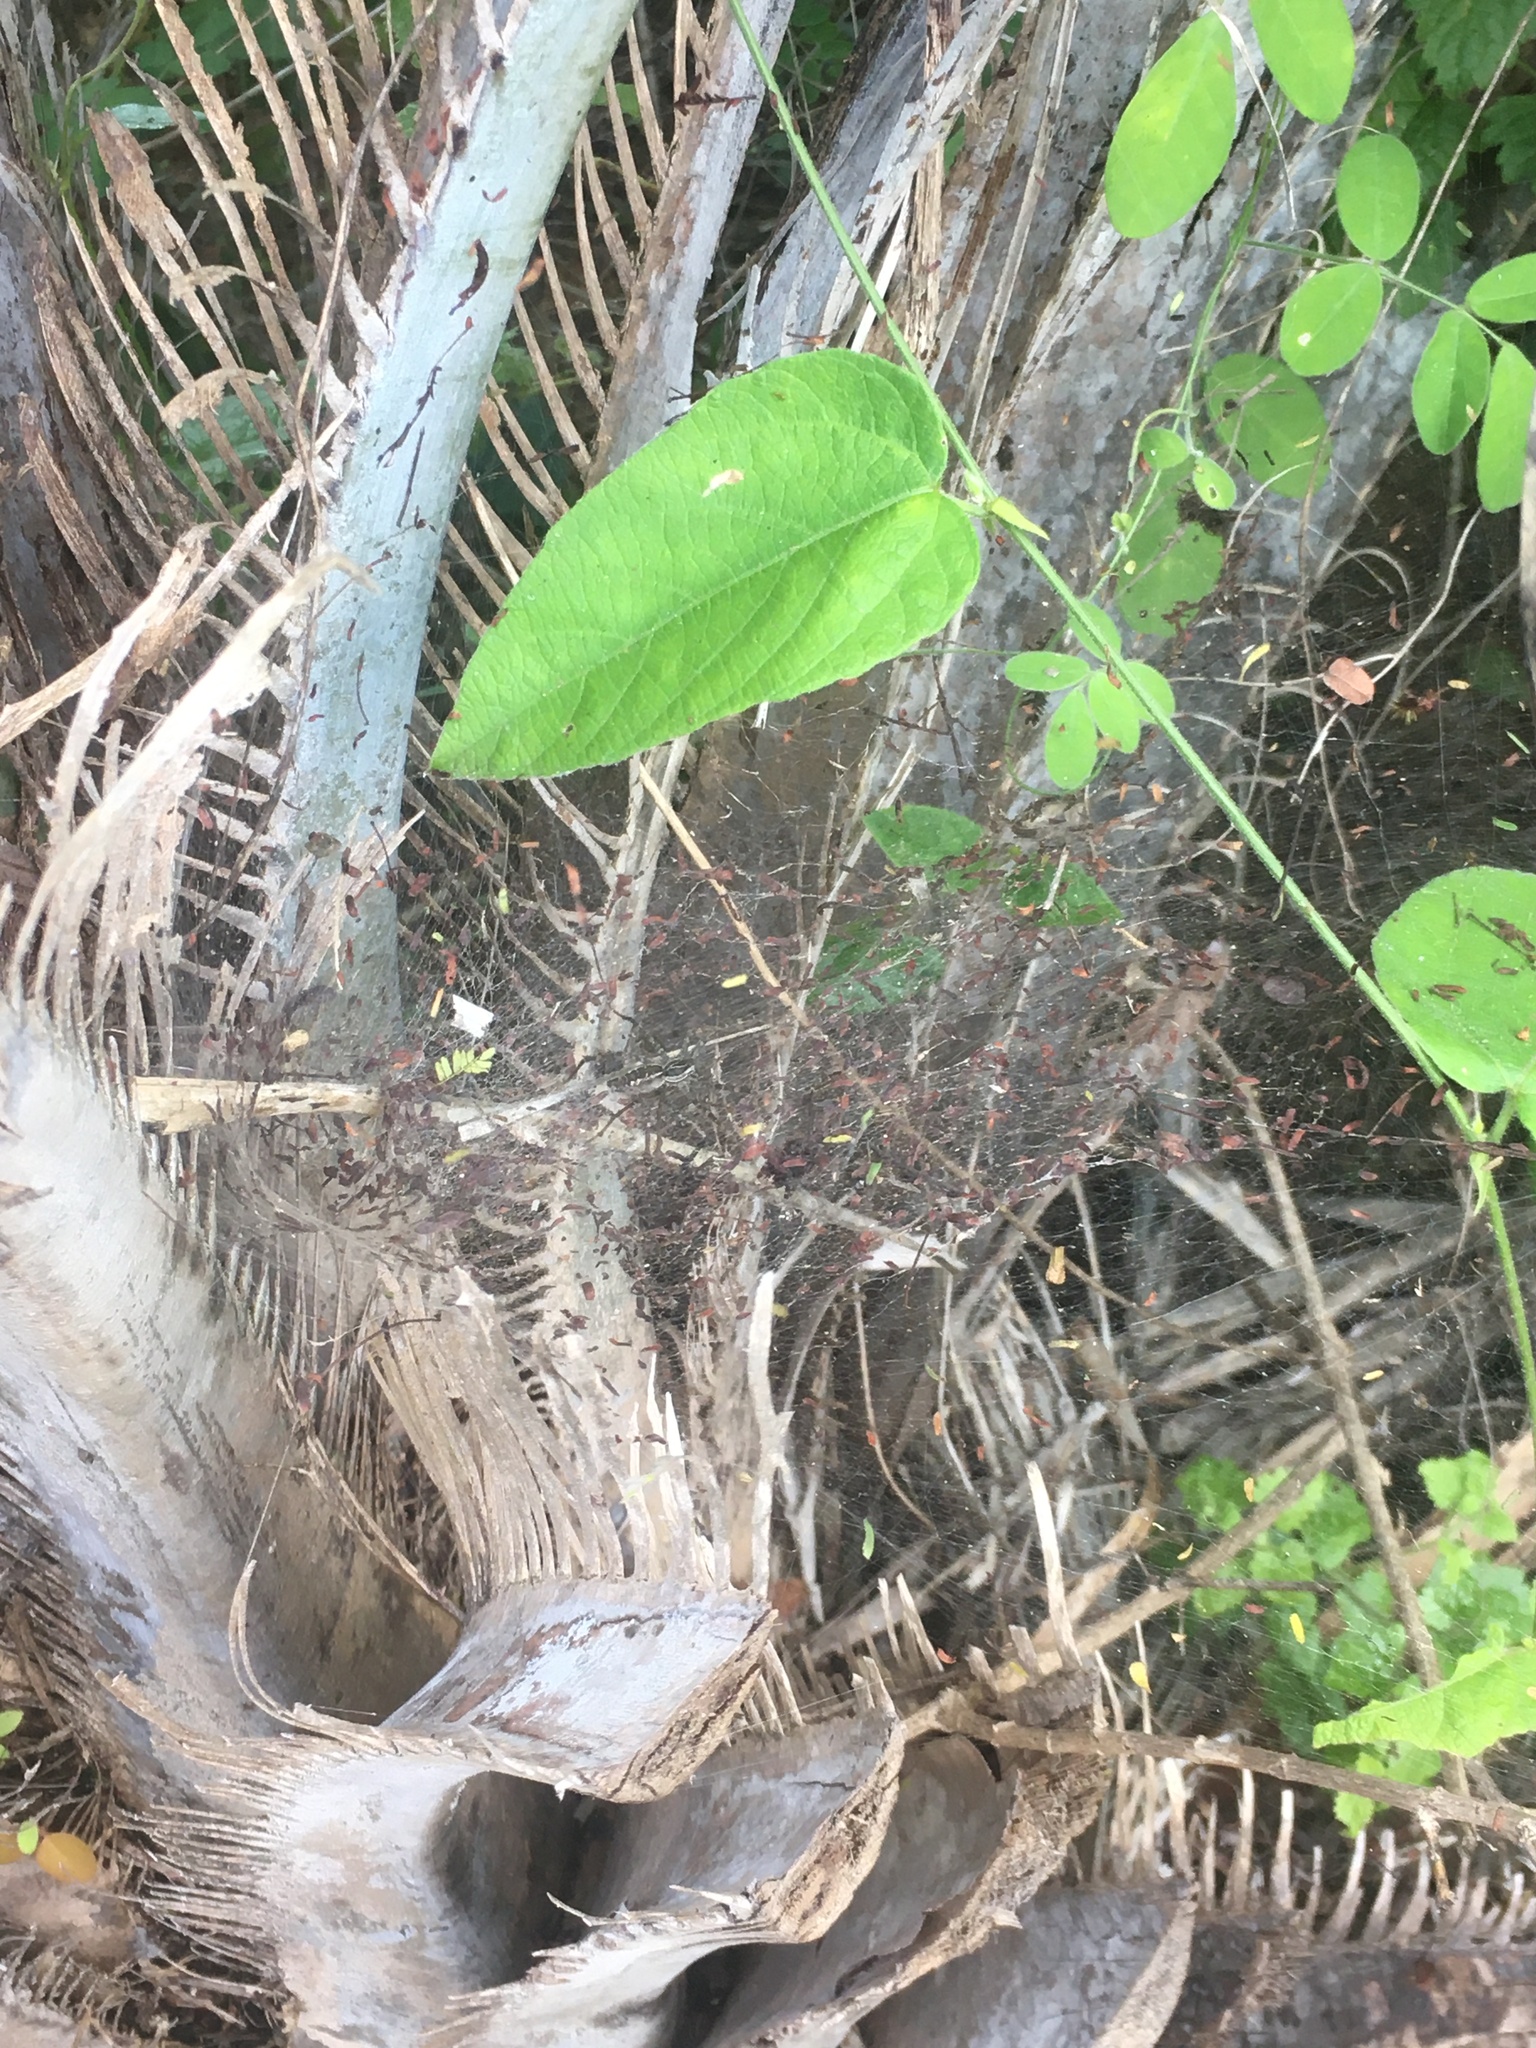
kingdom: Animalia
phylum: Arthropoda
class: Arachnida
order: Araneae
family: Lycosidae
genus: Aglaoctenus
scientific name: Aglaoctenus lagotis
